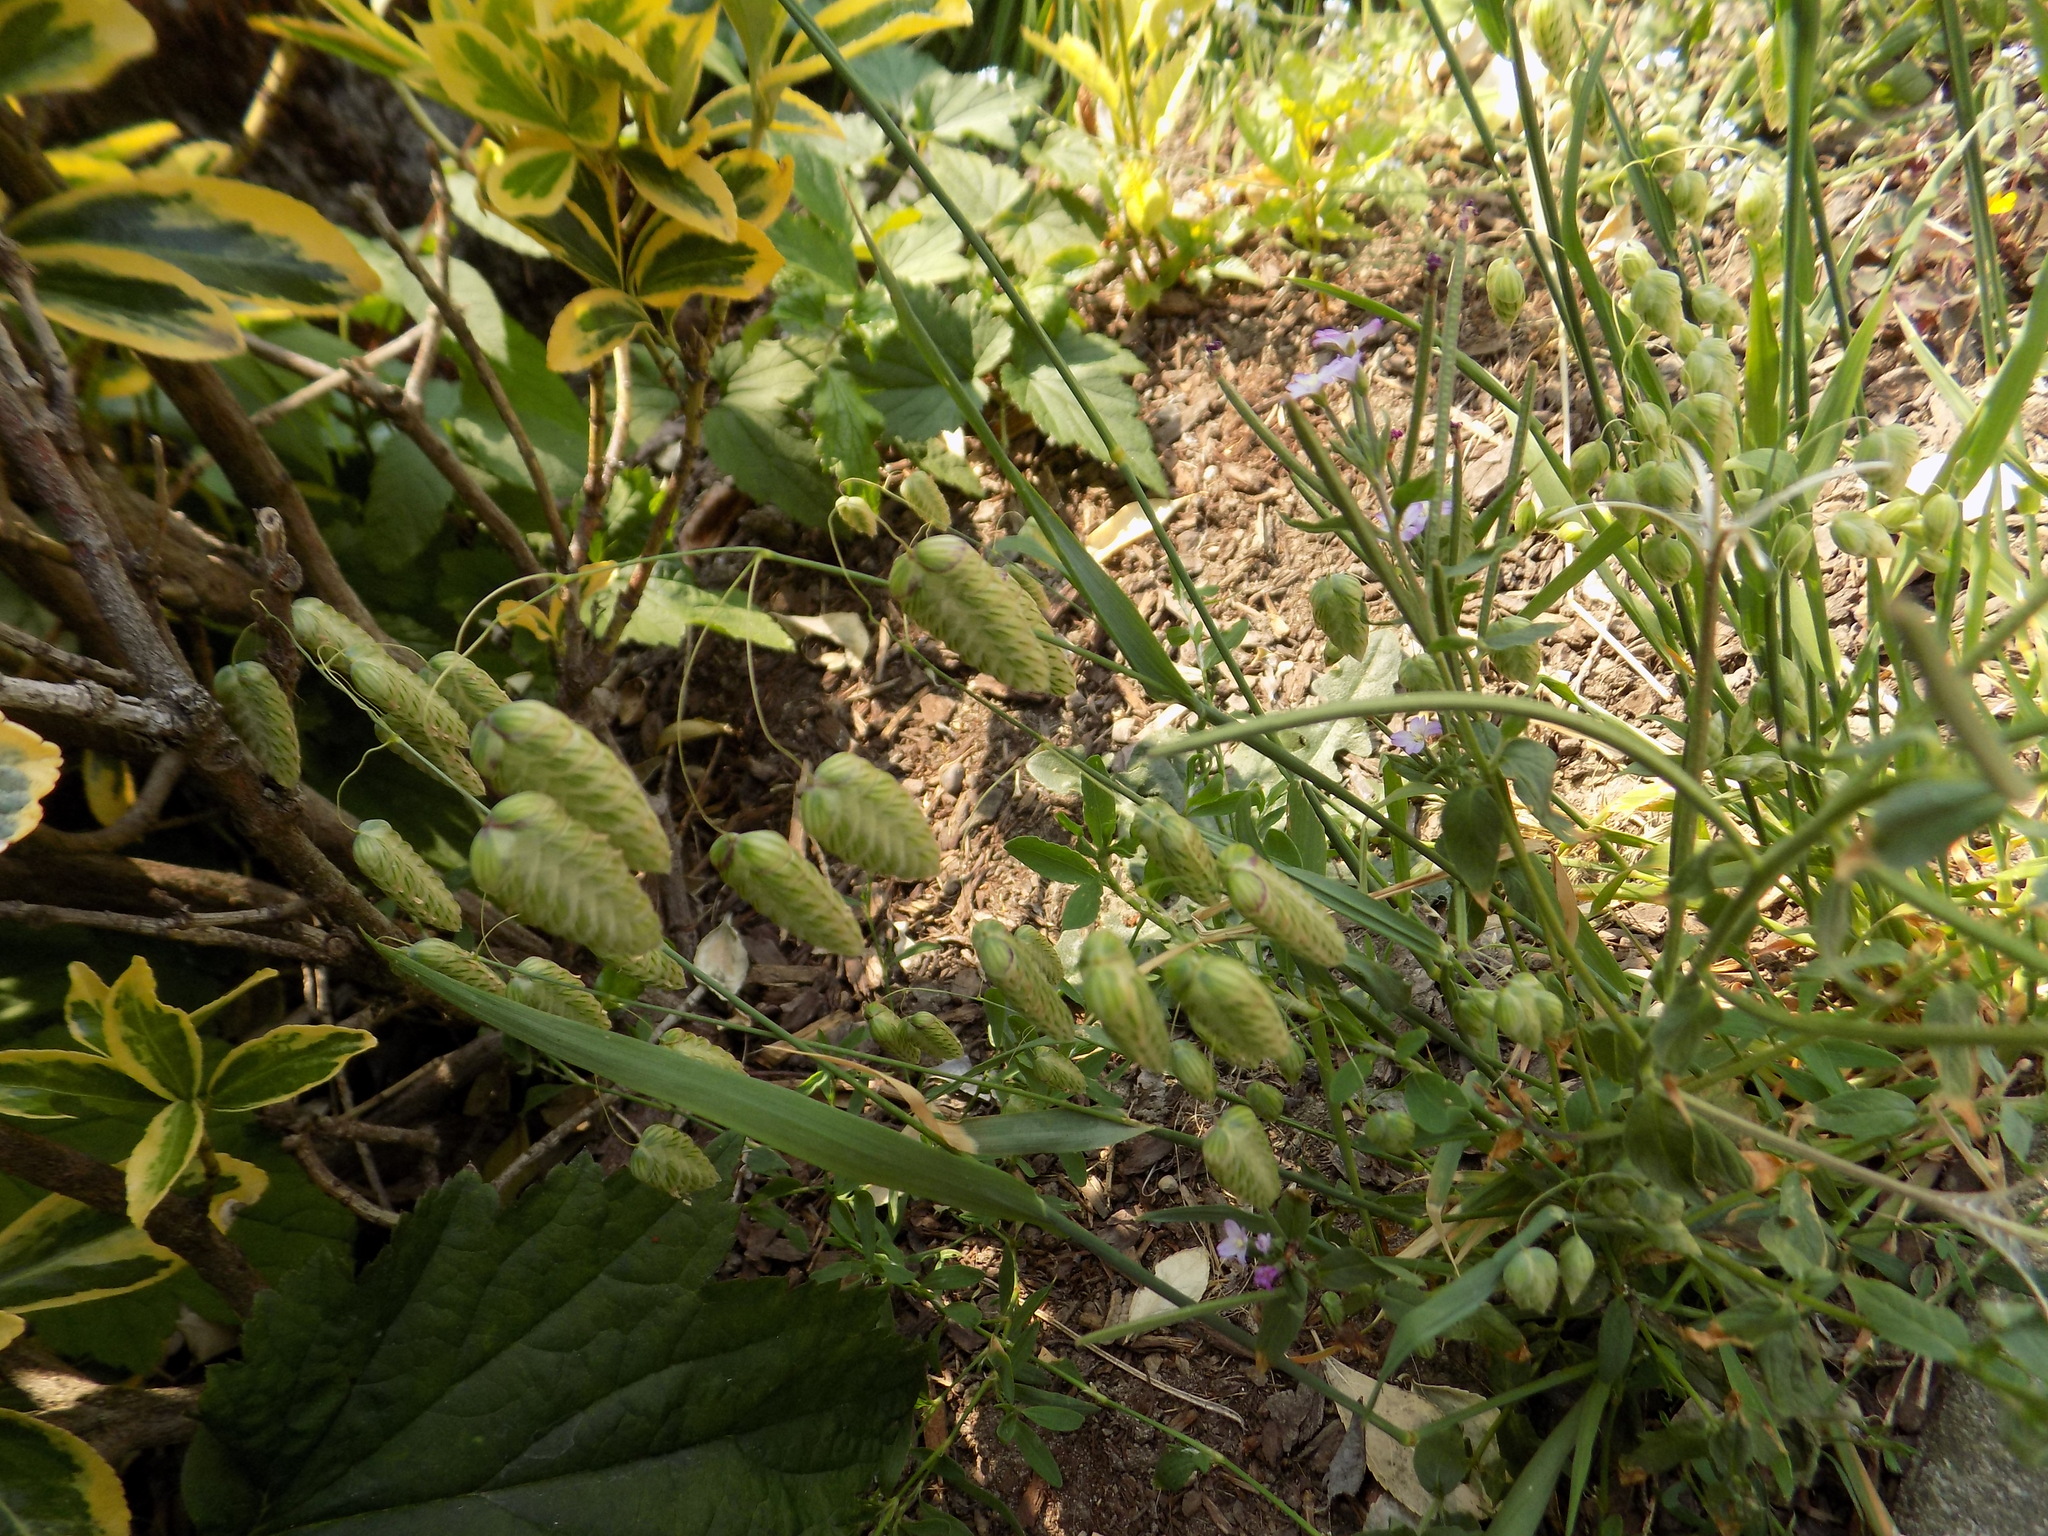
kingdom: Plantae
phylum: Tracheophyta
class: Liliopsida
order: Poales
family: Poaceae
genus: Briza
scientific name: Briza maxima
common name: Big quakinggrass
